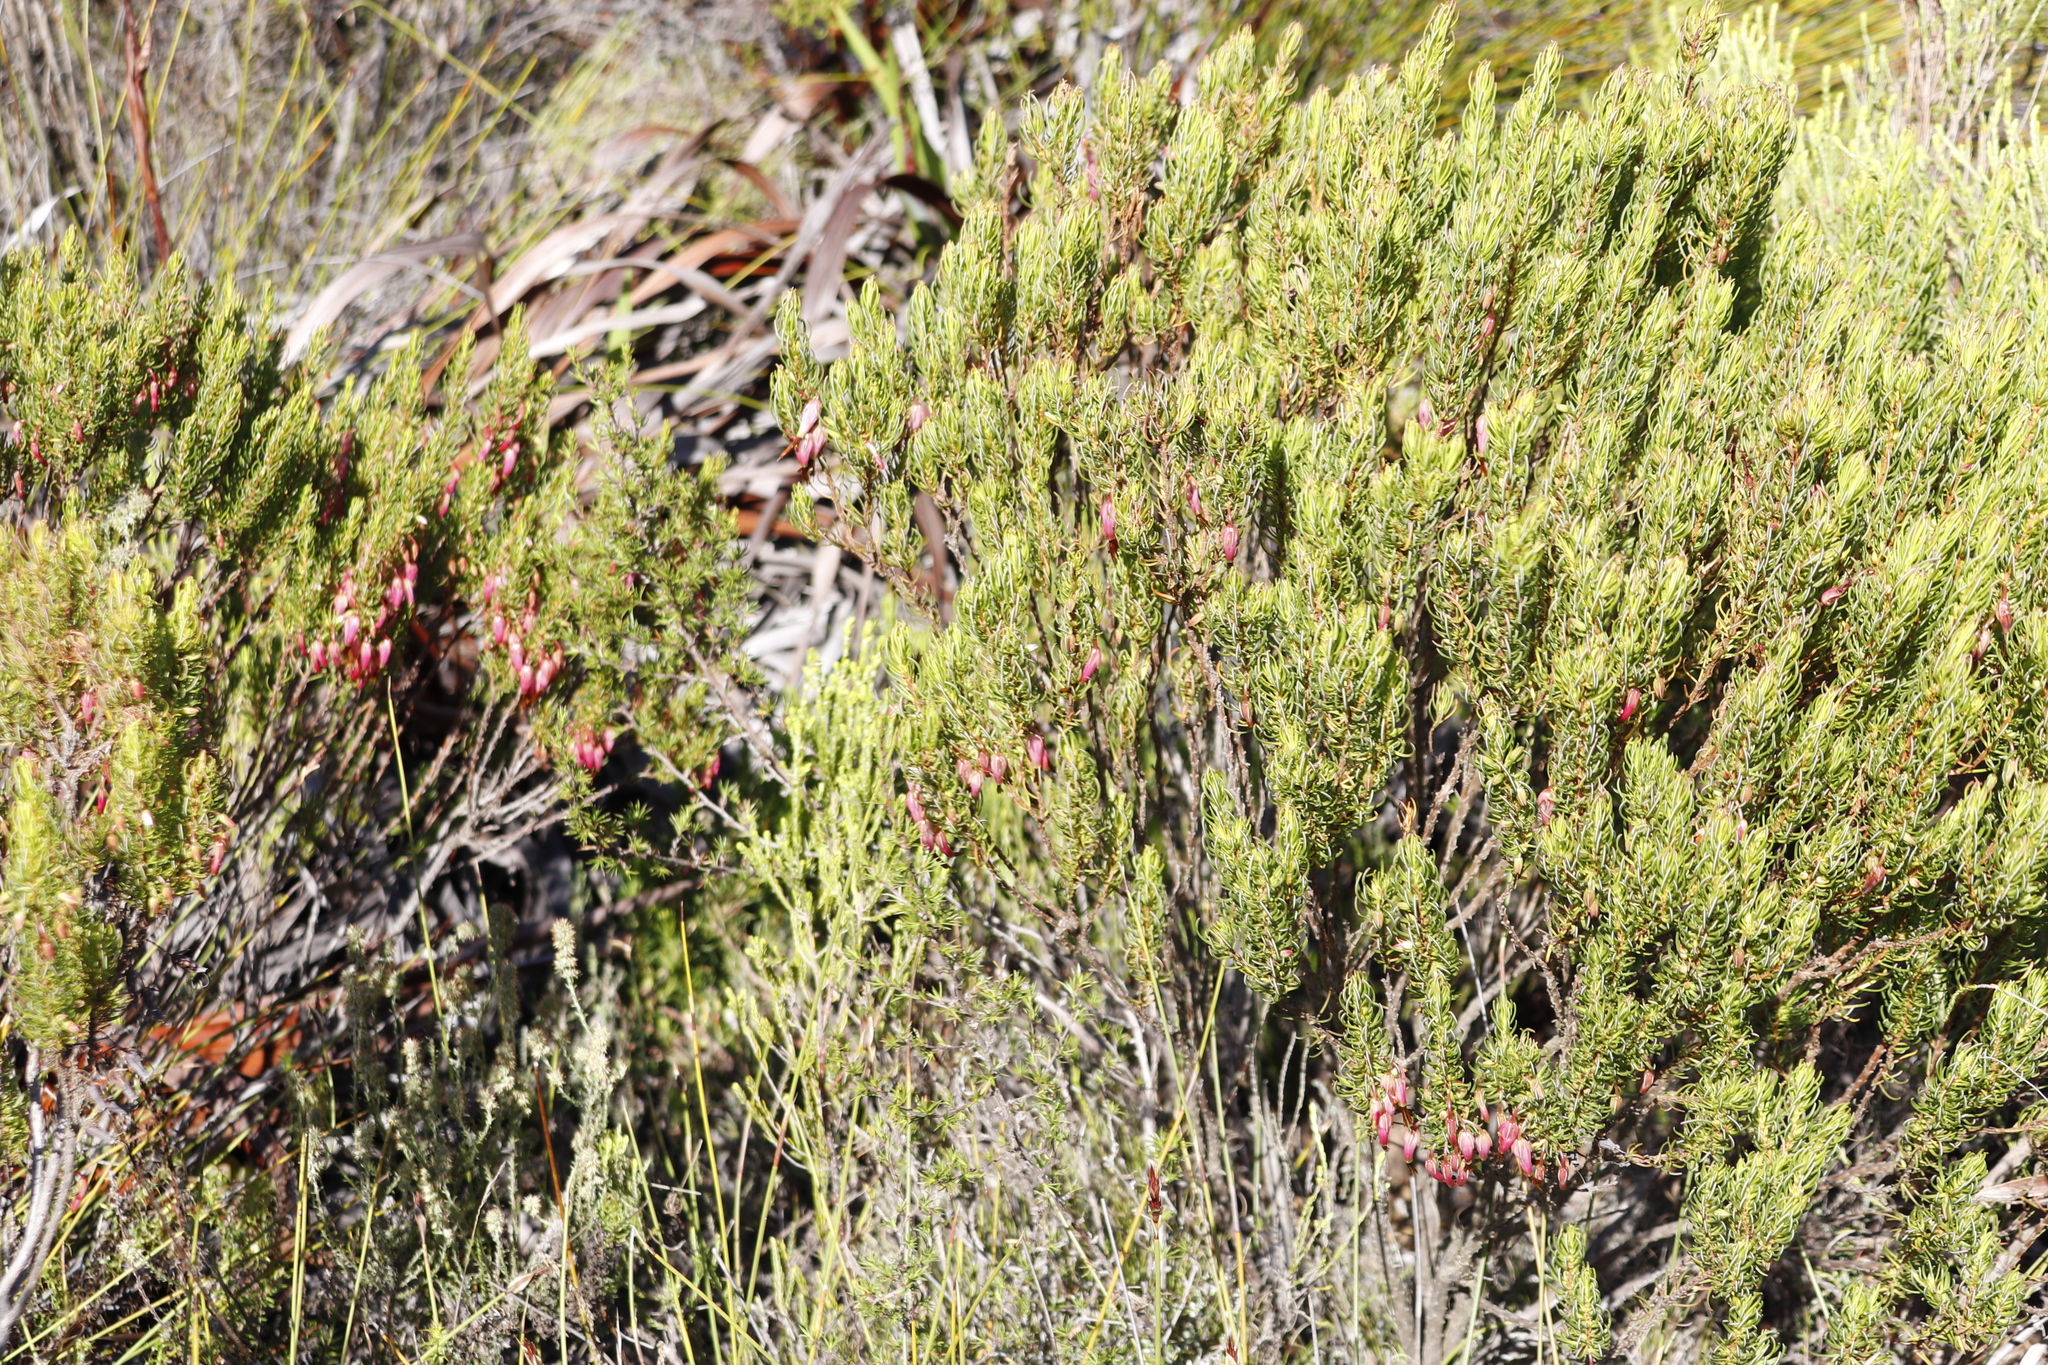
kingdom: Plantae
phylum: Tracheophyta
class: Magnoliopsida
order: Ericales
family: Ericaceae
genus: Erica
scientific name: Erica plukenetii
